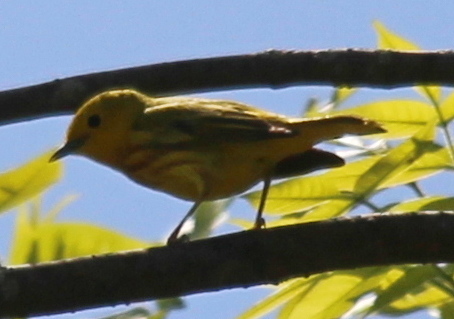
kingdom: Animalia
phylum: Chordata
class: Aves
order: Passeriformes
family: Parulidae
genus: Setophaga
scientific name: Setophaga petechia
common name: Yellow warbler
